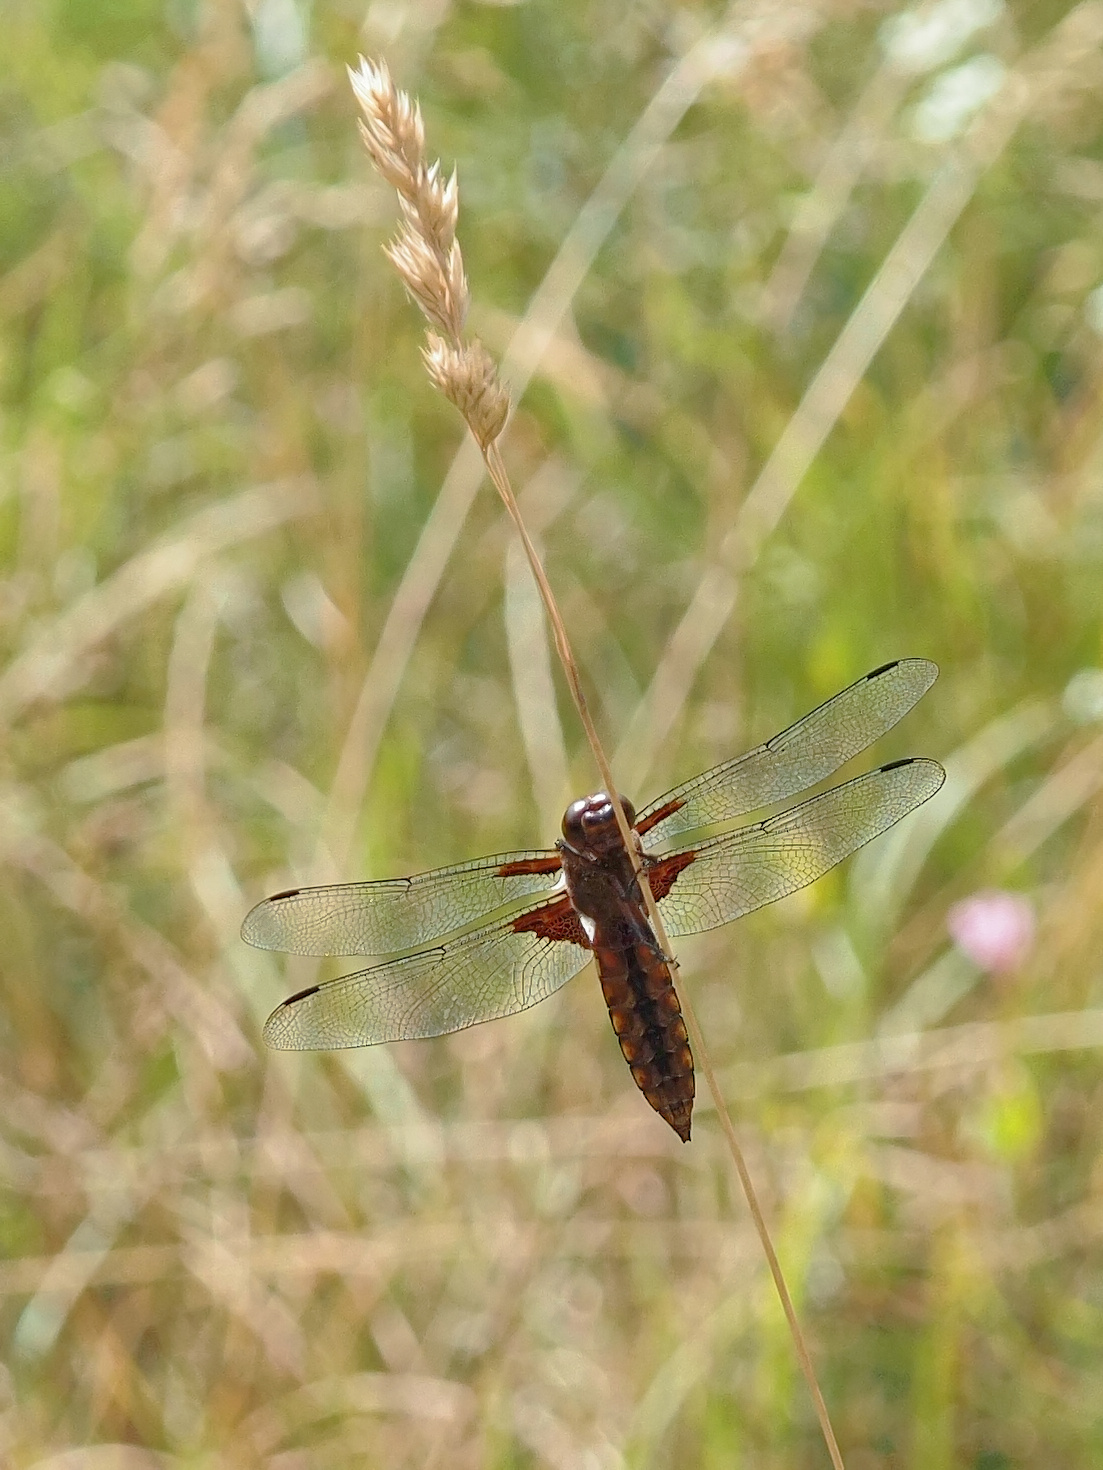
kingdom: Animalia
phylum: Arthropoda
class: Insecta
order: Odonata
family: Libellulidae
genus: Libellula
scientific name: Libellula depressa
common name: Broad-bodied chaser
